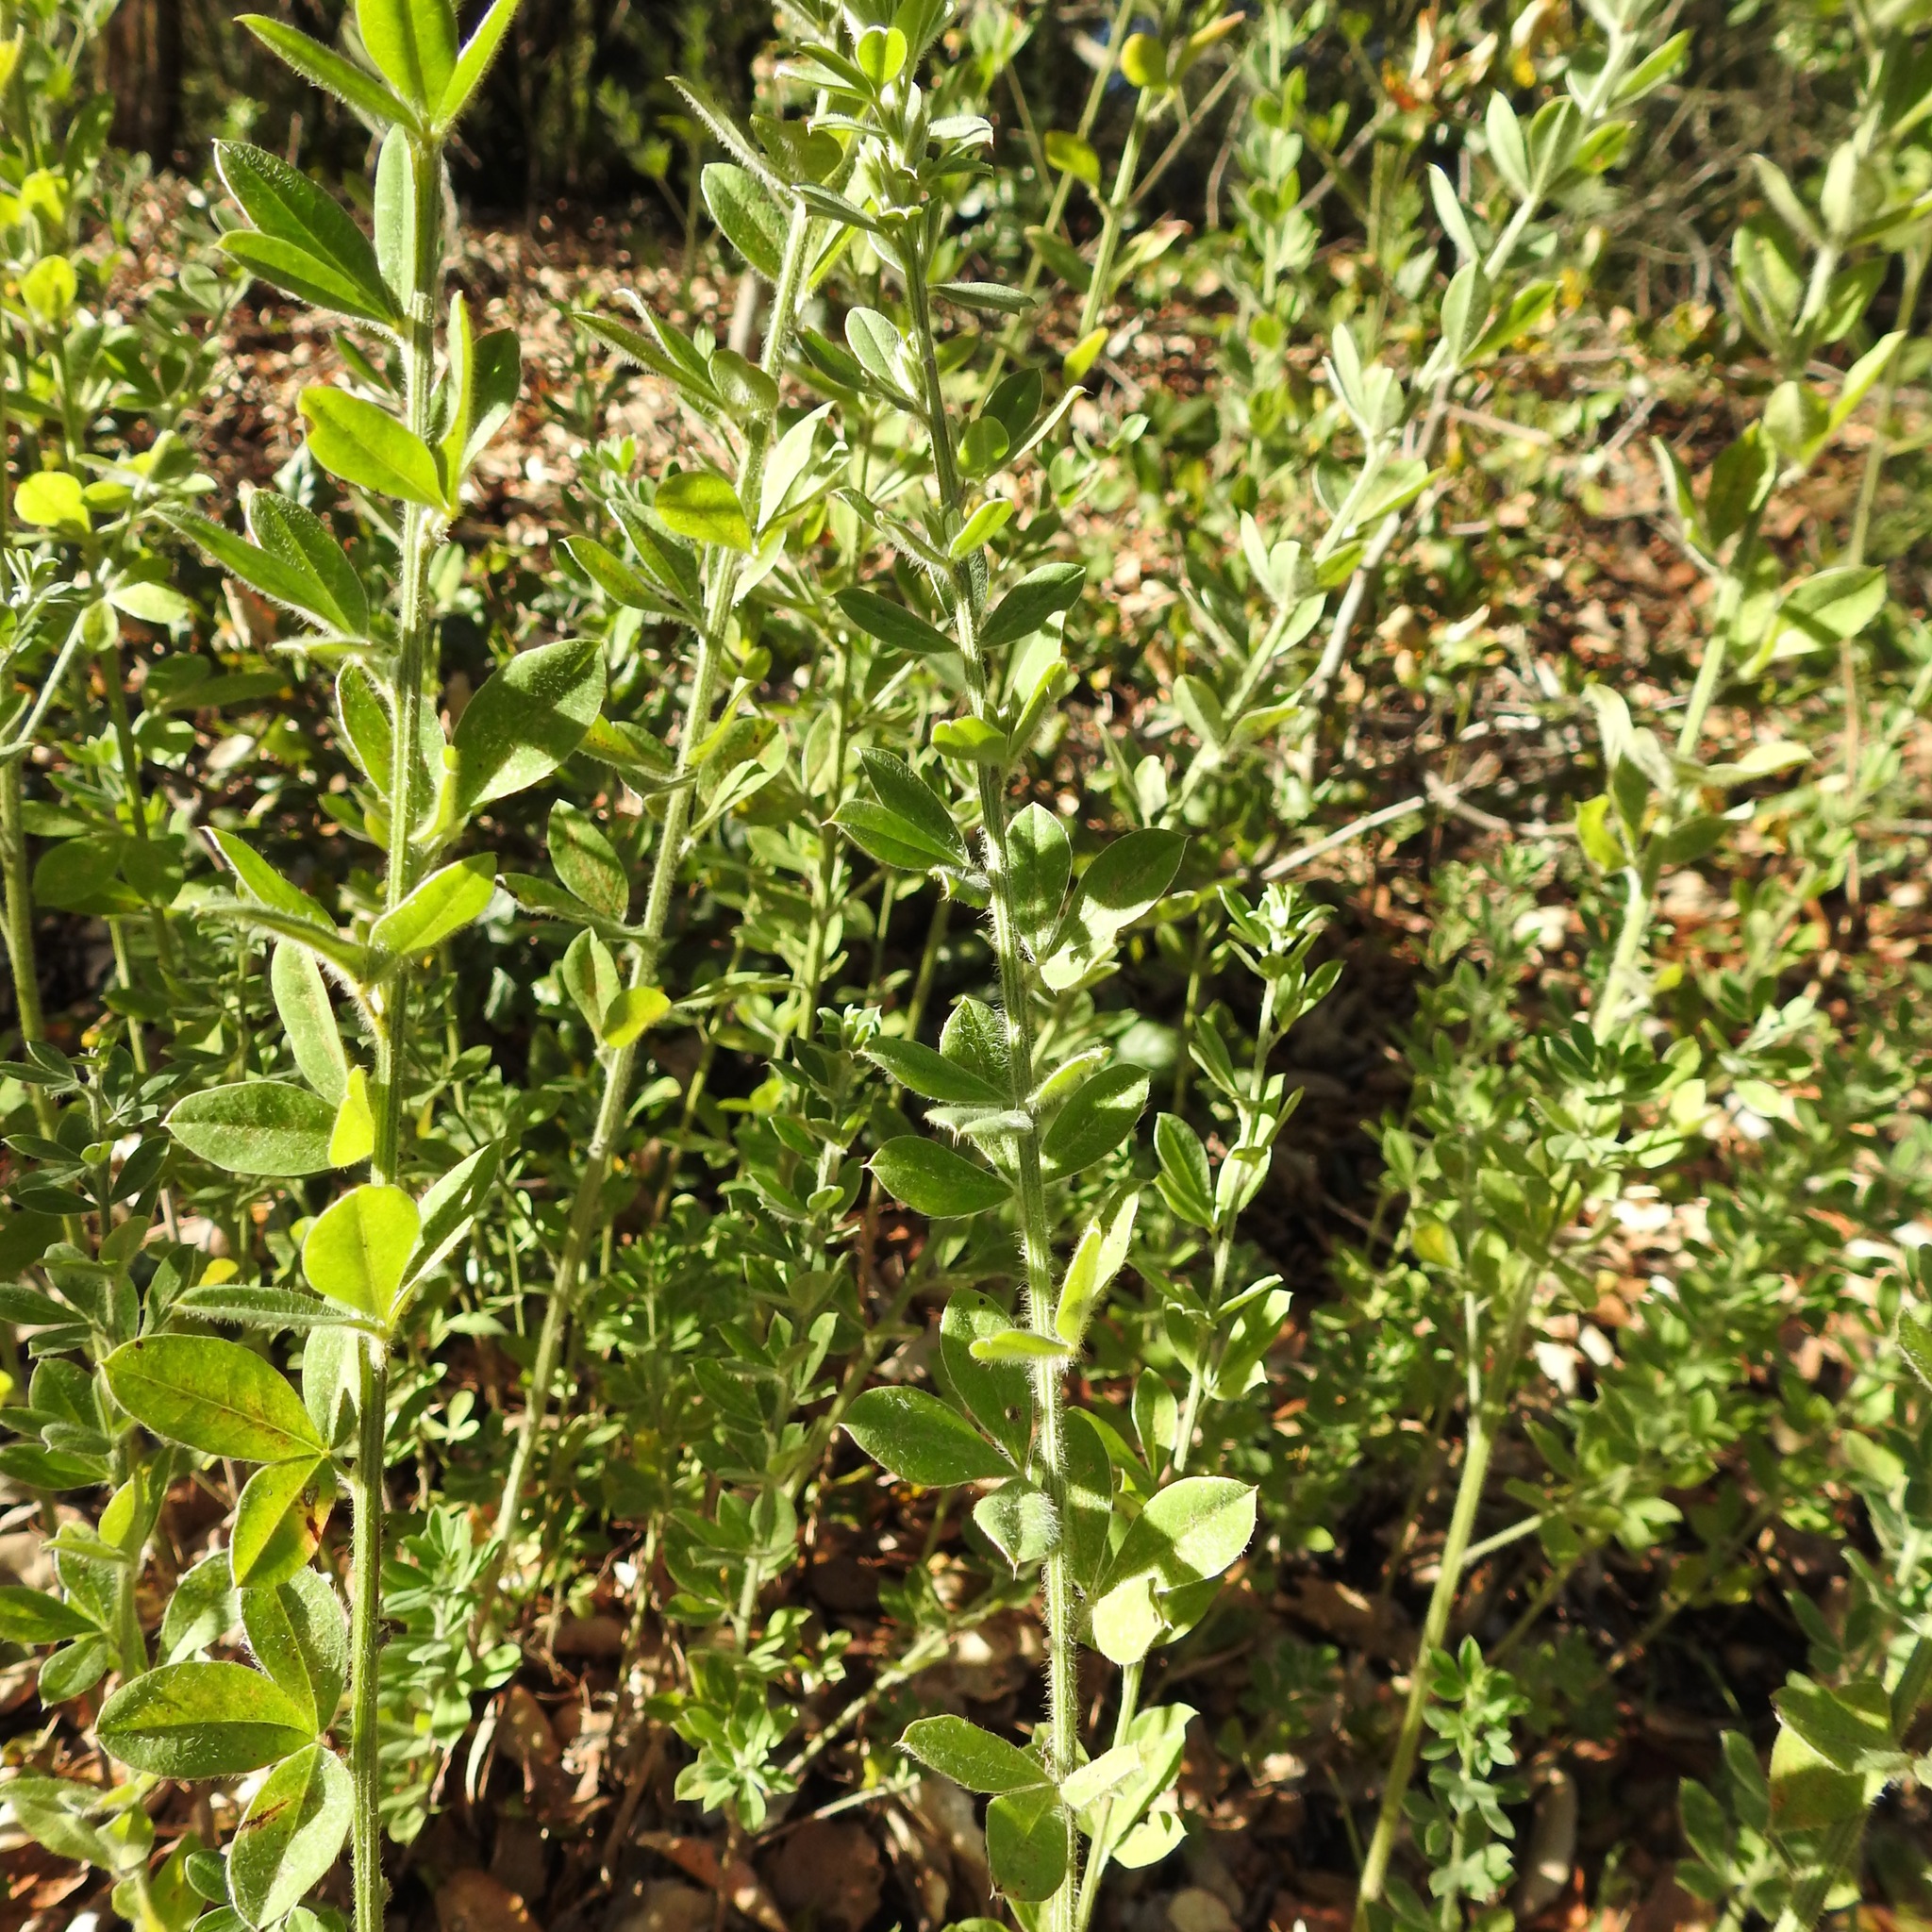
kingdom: Plantae
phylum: Tracheophyta
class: Magnoliopsida
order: Fabales
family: Fabaceae
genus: Genista
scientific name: Genista monspessulana
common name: Montpellier broom
